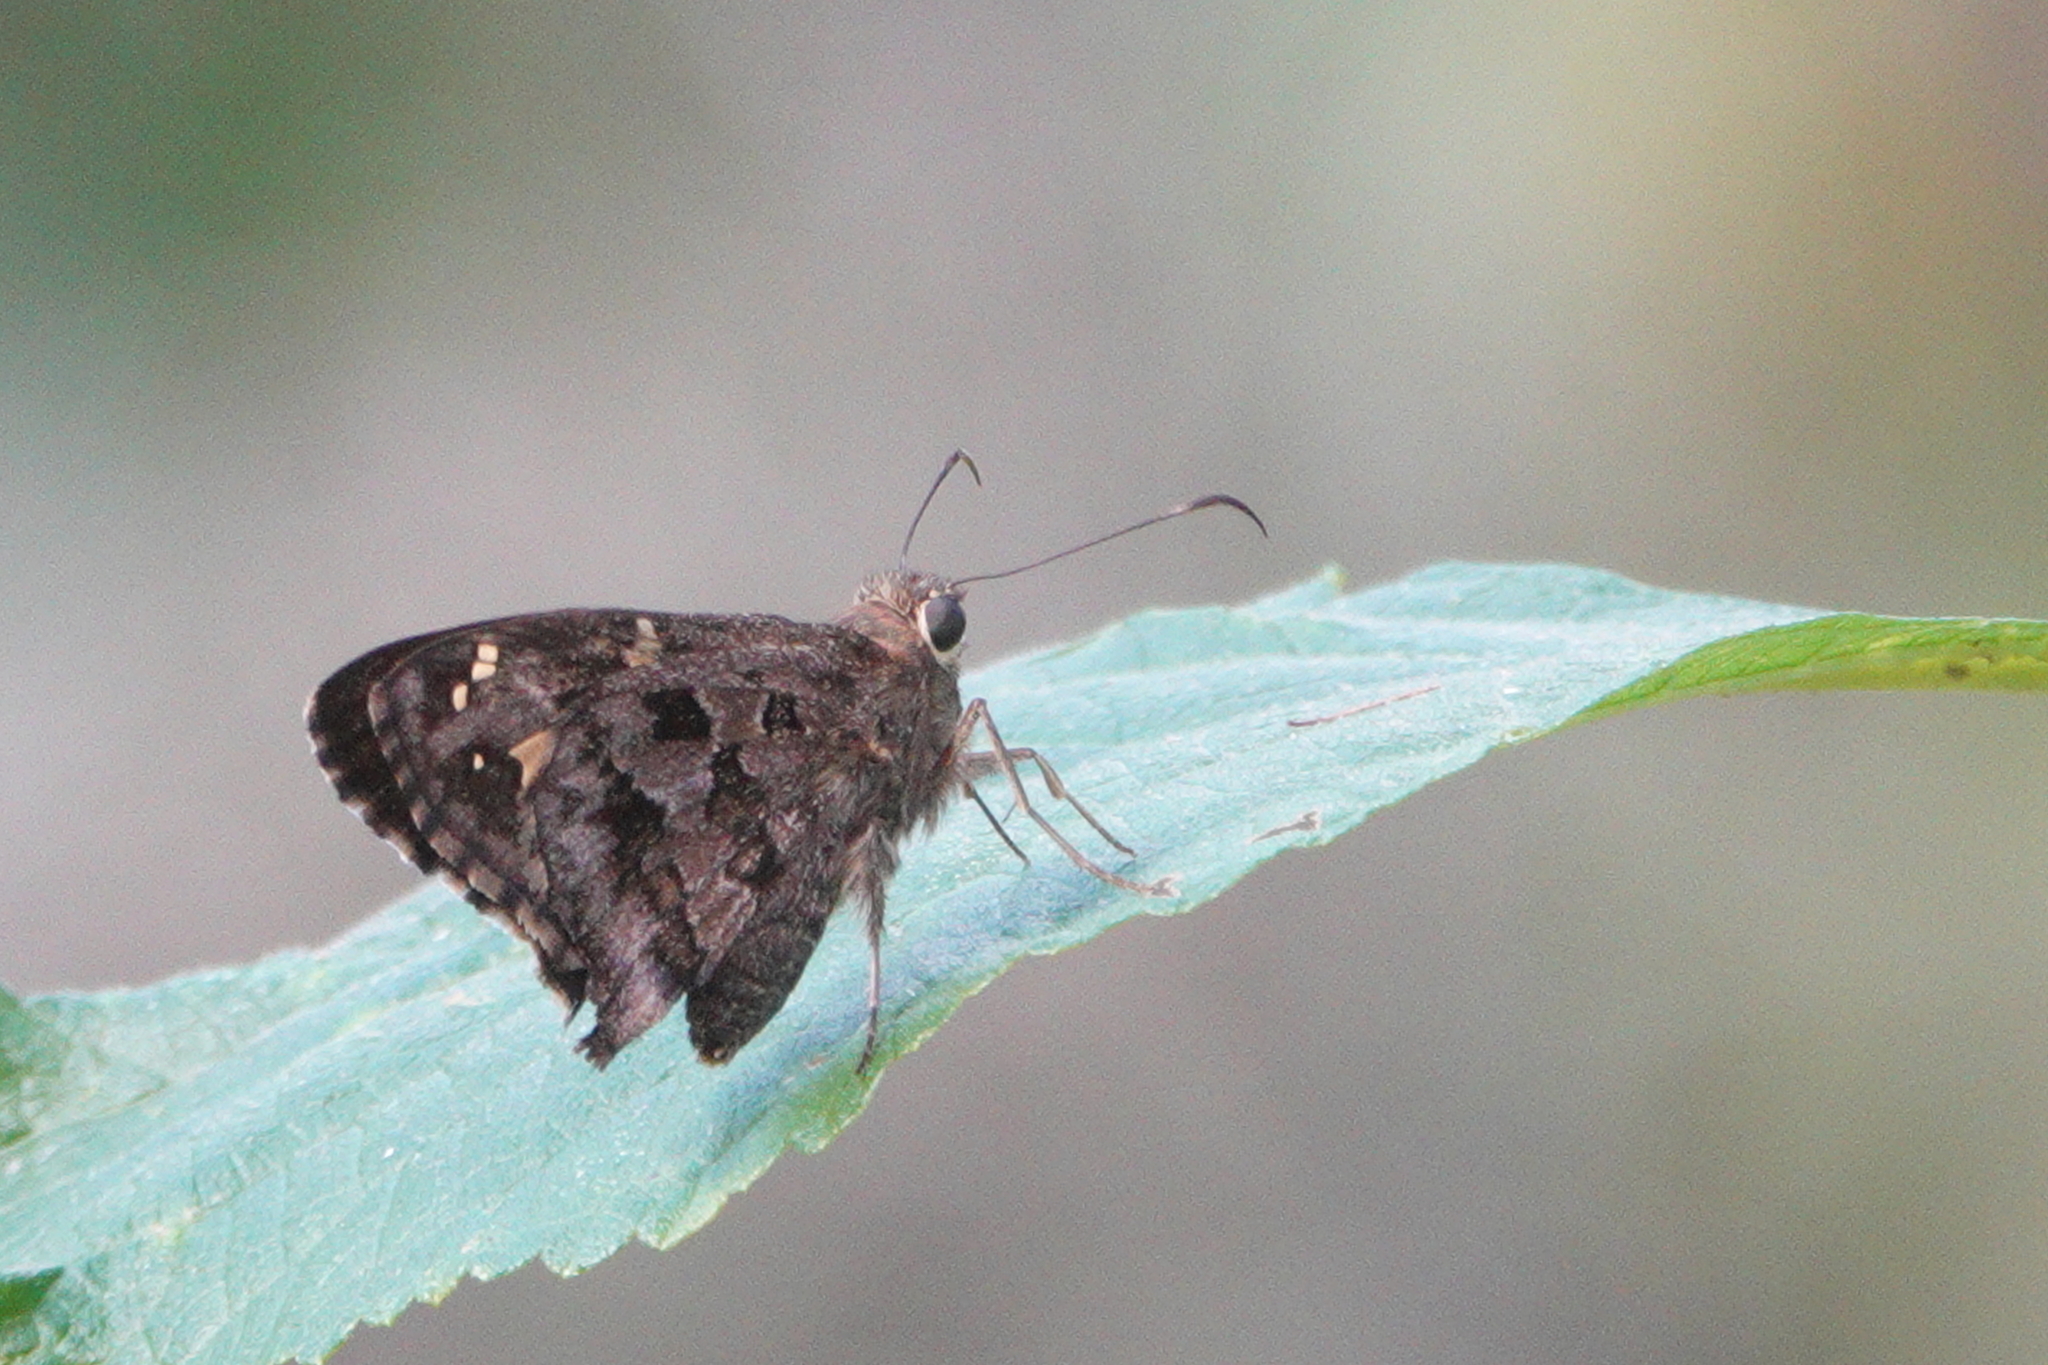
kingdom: Animalia
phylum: Arthropoda
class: Insecta
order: Lepidoptera
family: Hesperiidae
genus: Thorybes
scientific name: Thorybes
